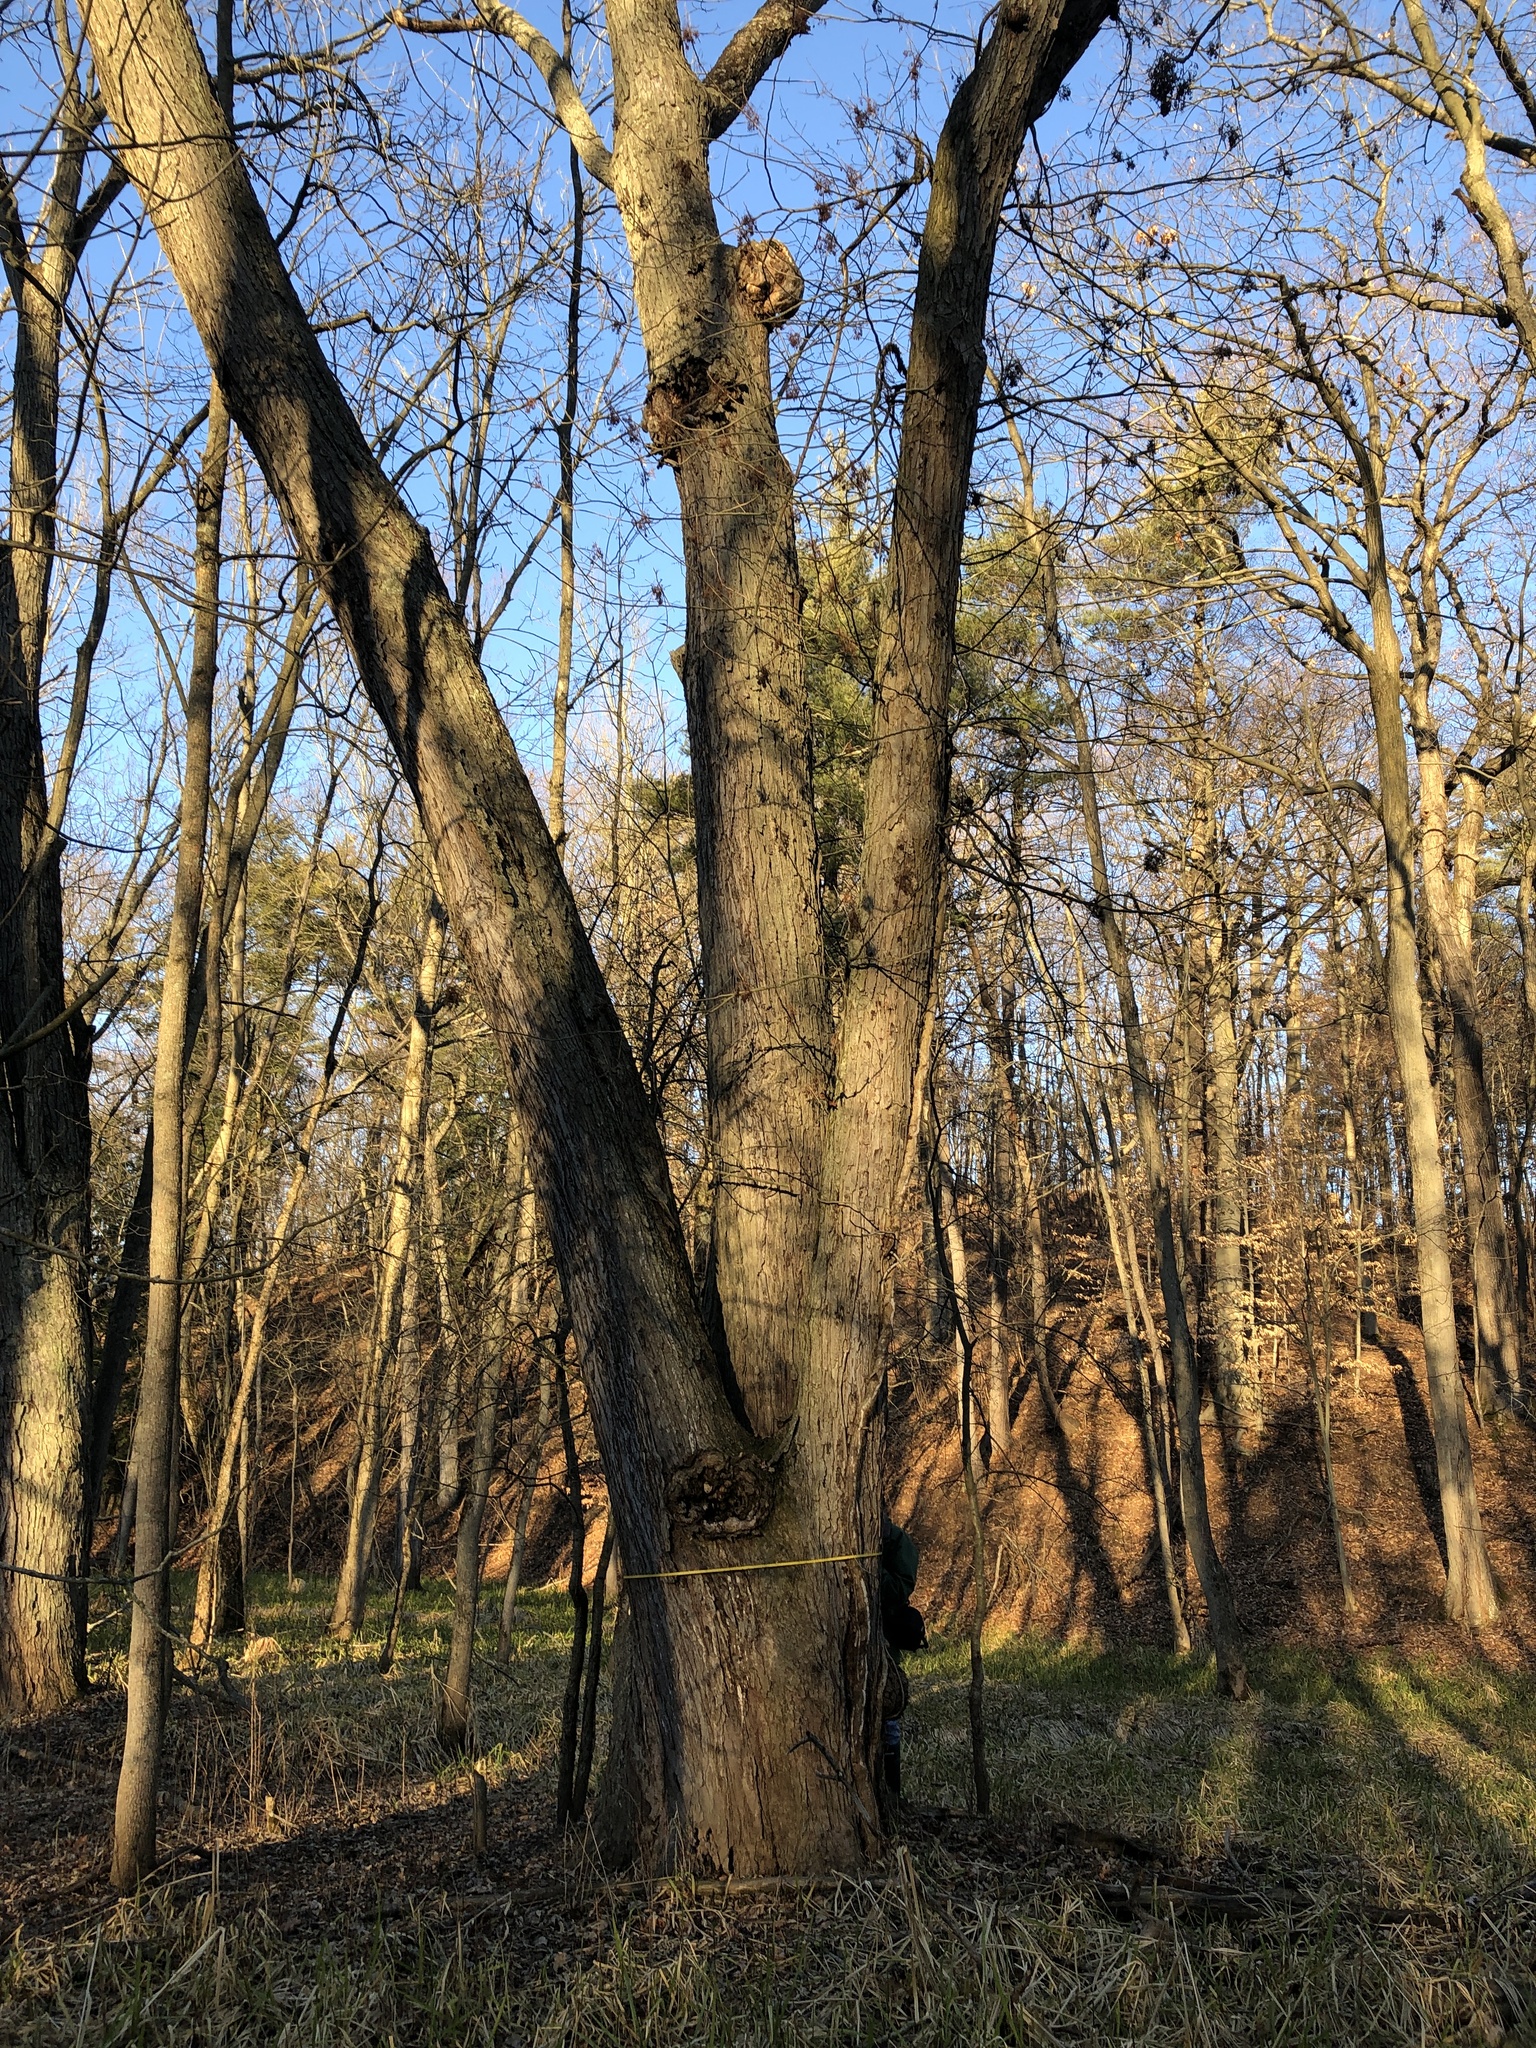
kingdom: Plantae
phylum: Tracheophyta
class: Magnoliopsida
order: Sapindales
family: Sapindaceae
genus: Acer
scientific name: Acer saccharinum
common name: Silver maple
